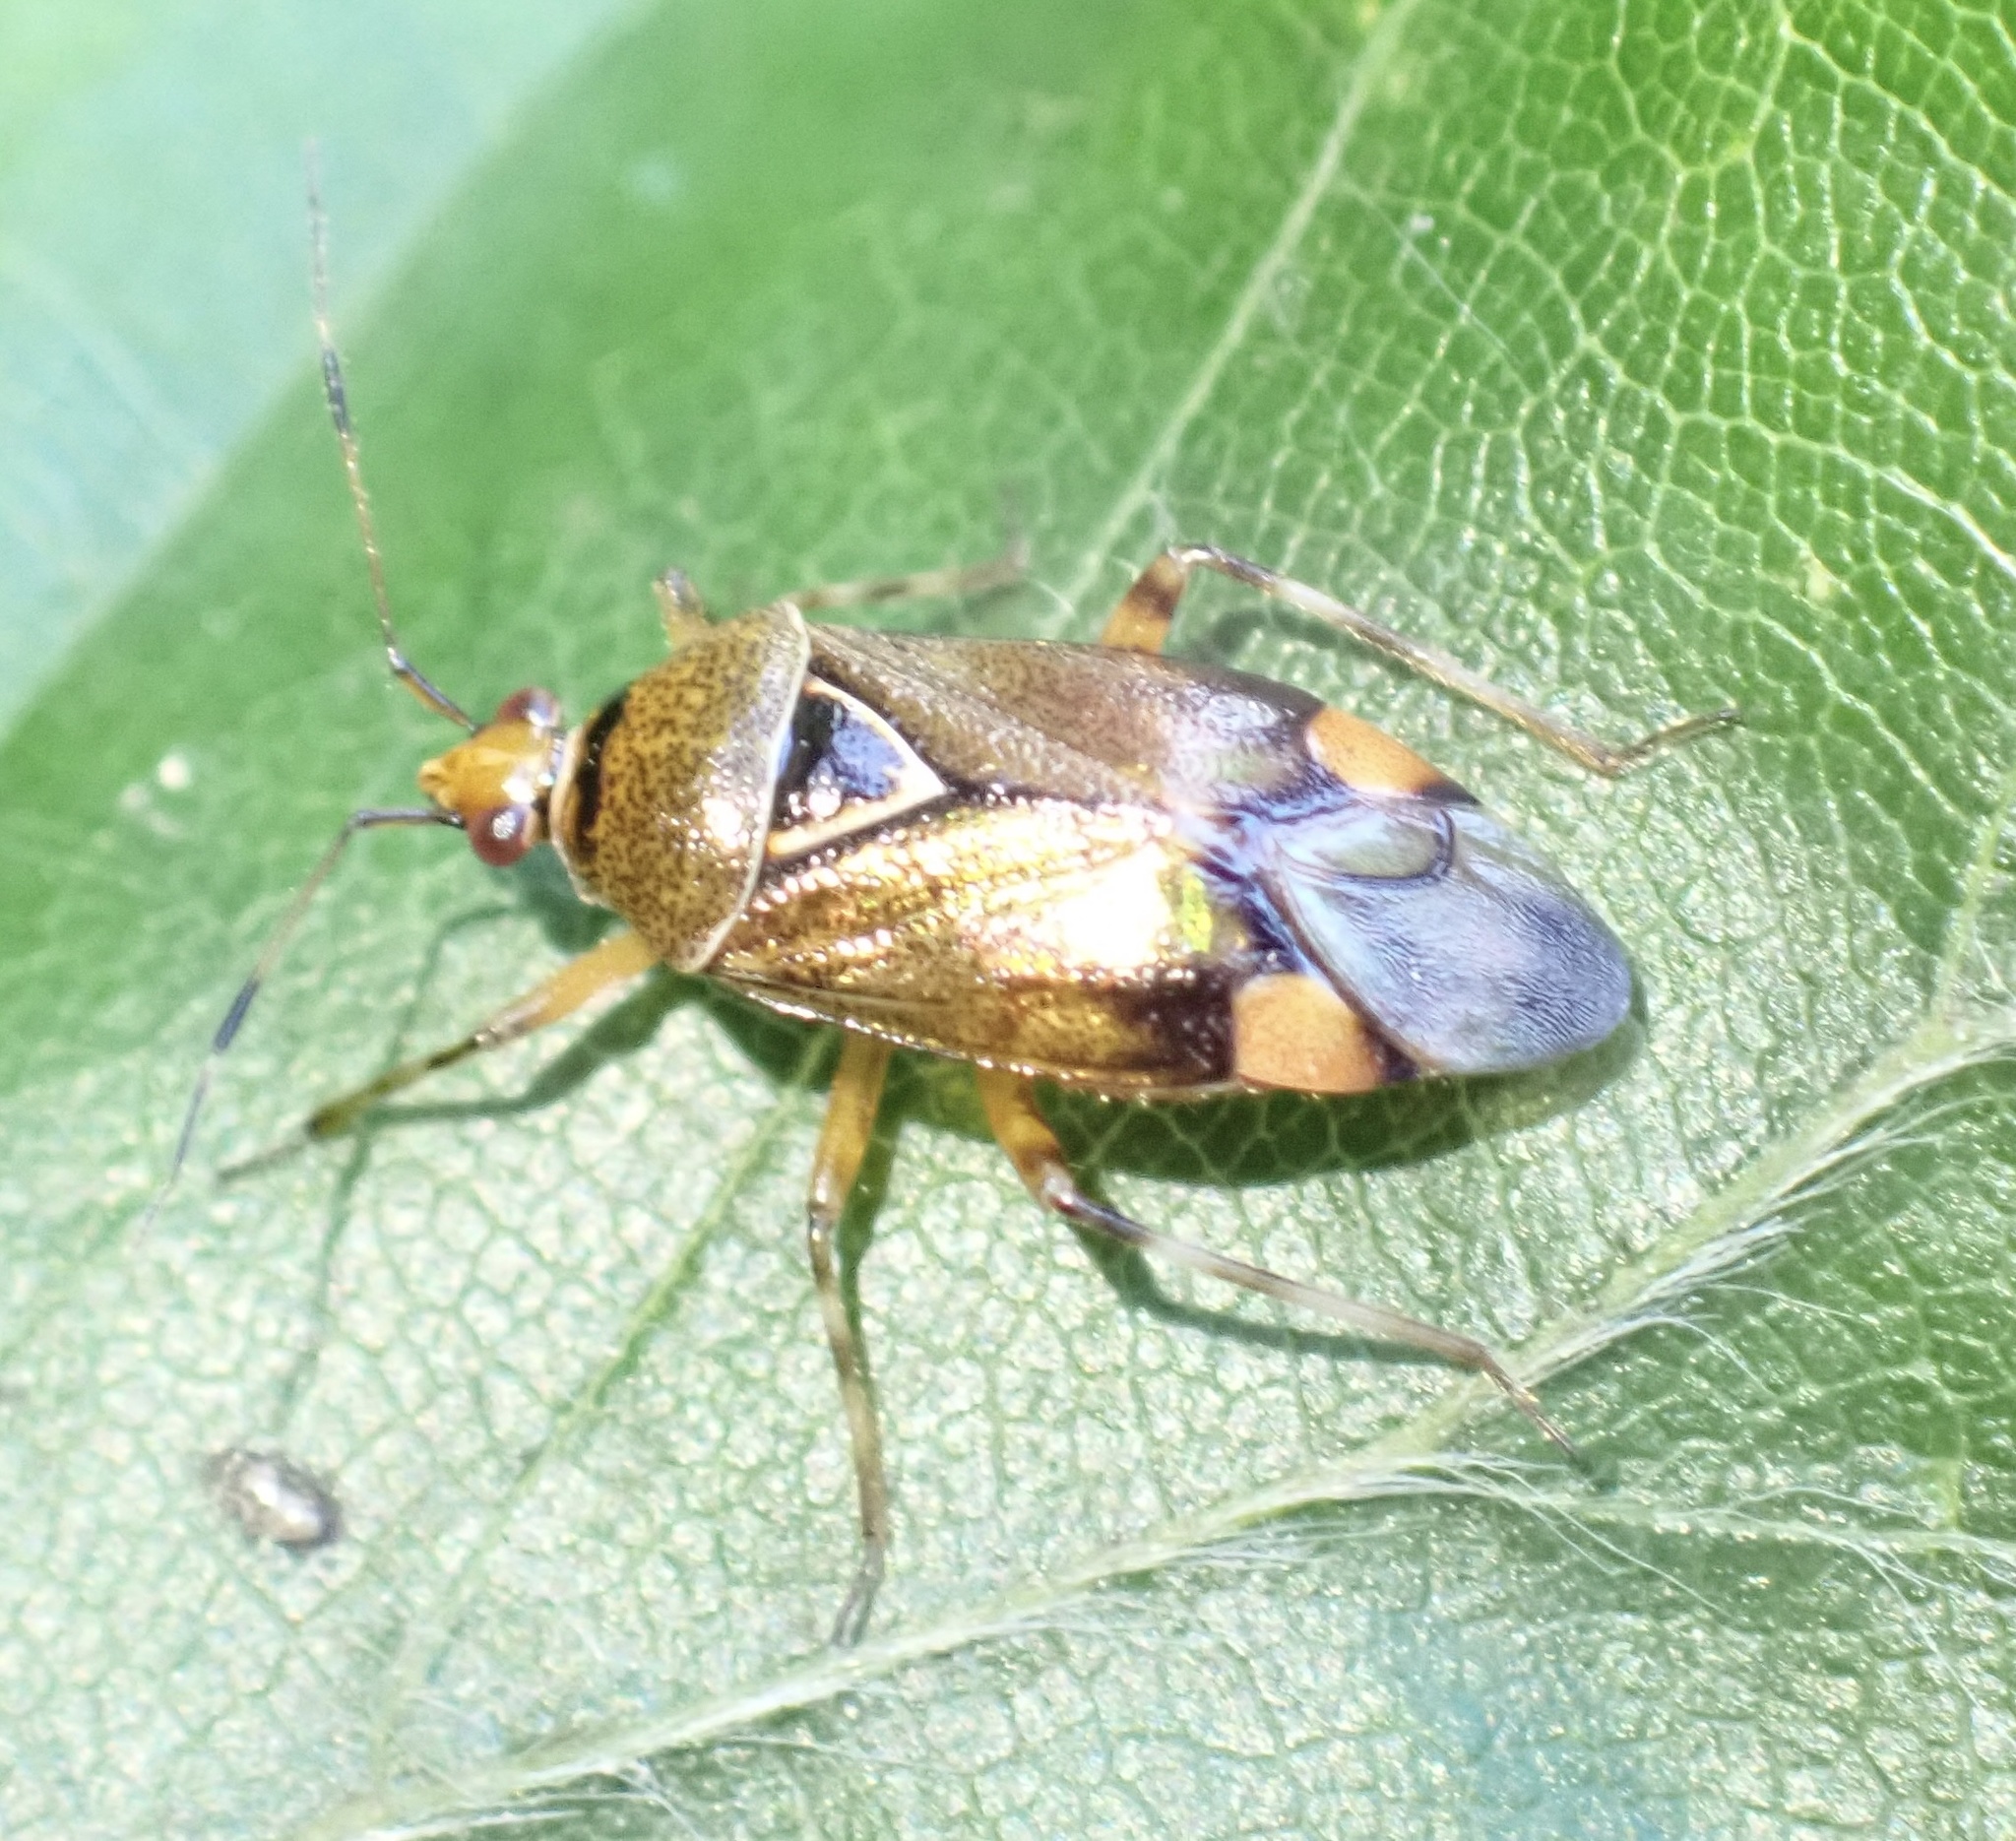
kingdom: Animalia
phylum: Arthropoda
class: Insecta
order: Hemiptera
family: Miridae
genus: Deraeocoris
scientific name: Deraeocoris flavilinea
